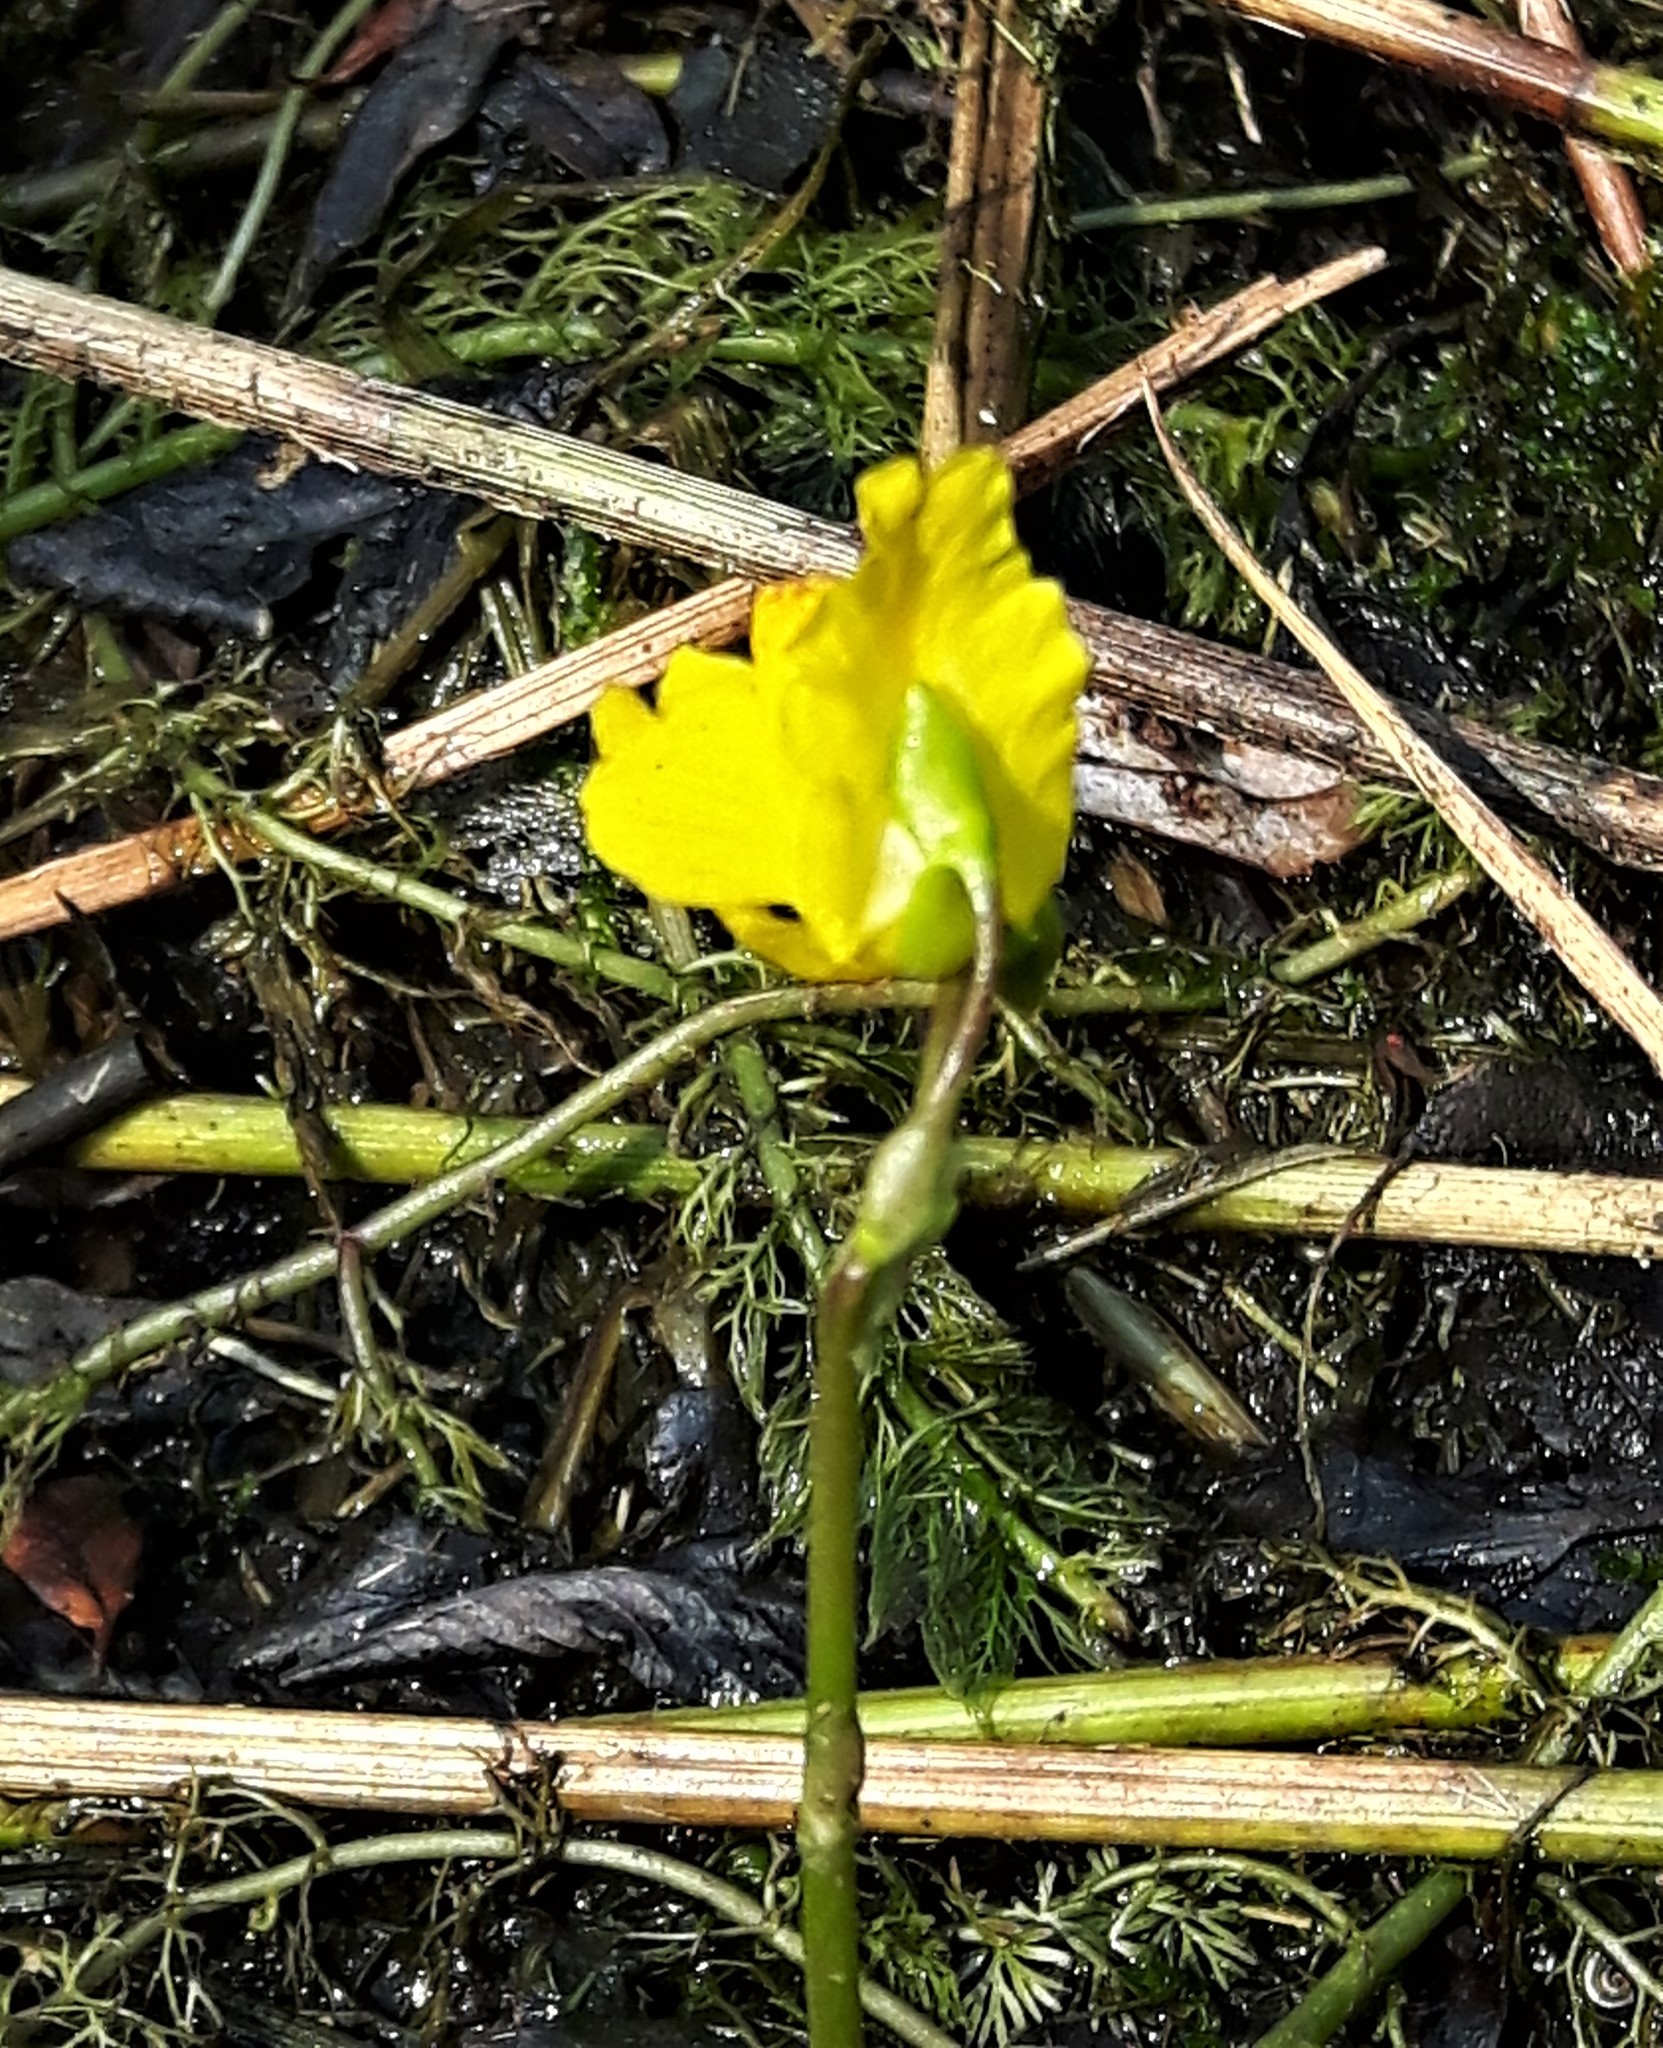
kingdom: Plantae
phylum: Tracheophyta
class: Magnoliopsida
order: Lamiales
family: Lentibulariaceae
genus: Utricularia
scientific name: Utricularia macrorhiza
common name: Common bladderwort
